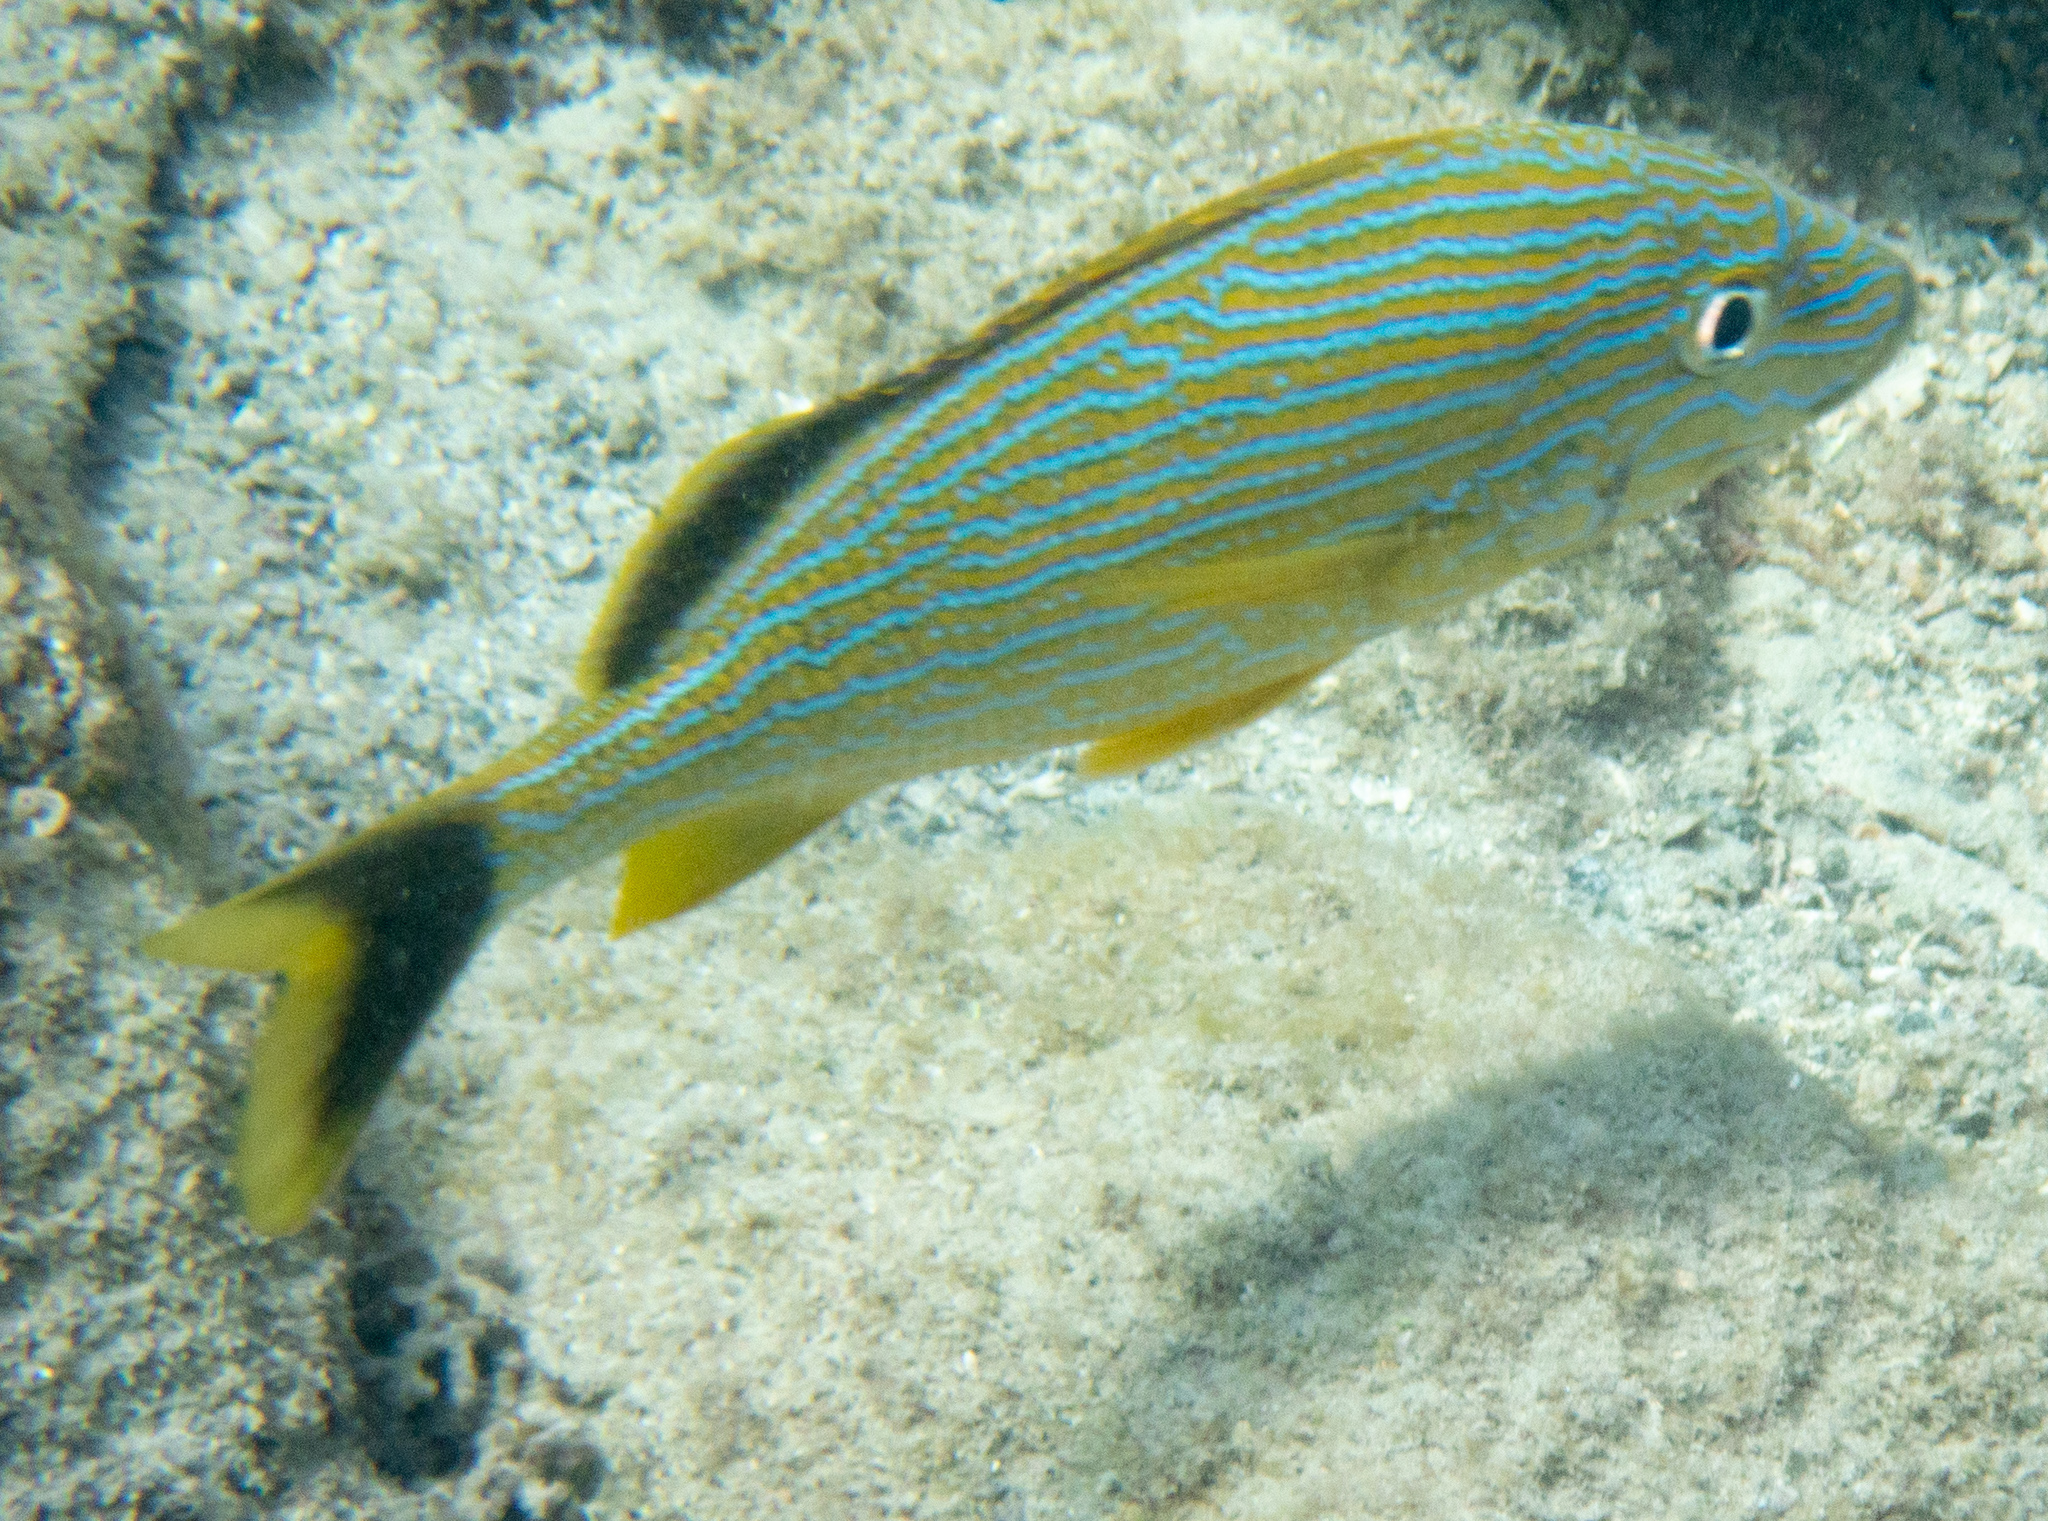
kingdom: Animalia
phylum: Chordata
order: Perciformes
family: Haemulidae
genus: Haemulon
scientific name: Haemulon sciurus
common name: Bluestriped grunt
